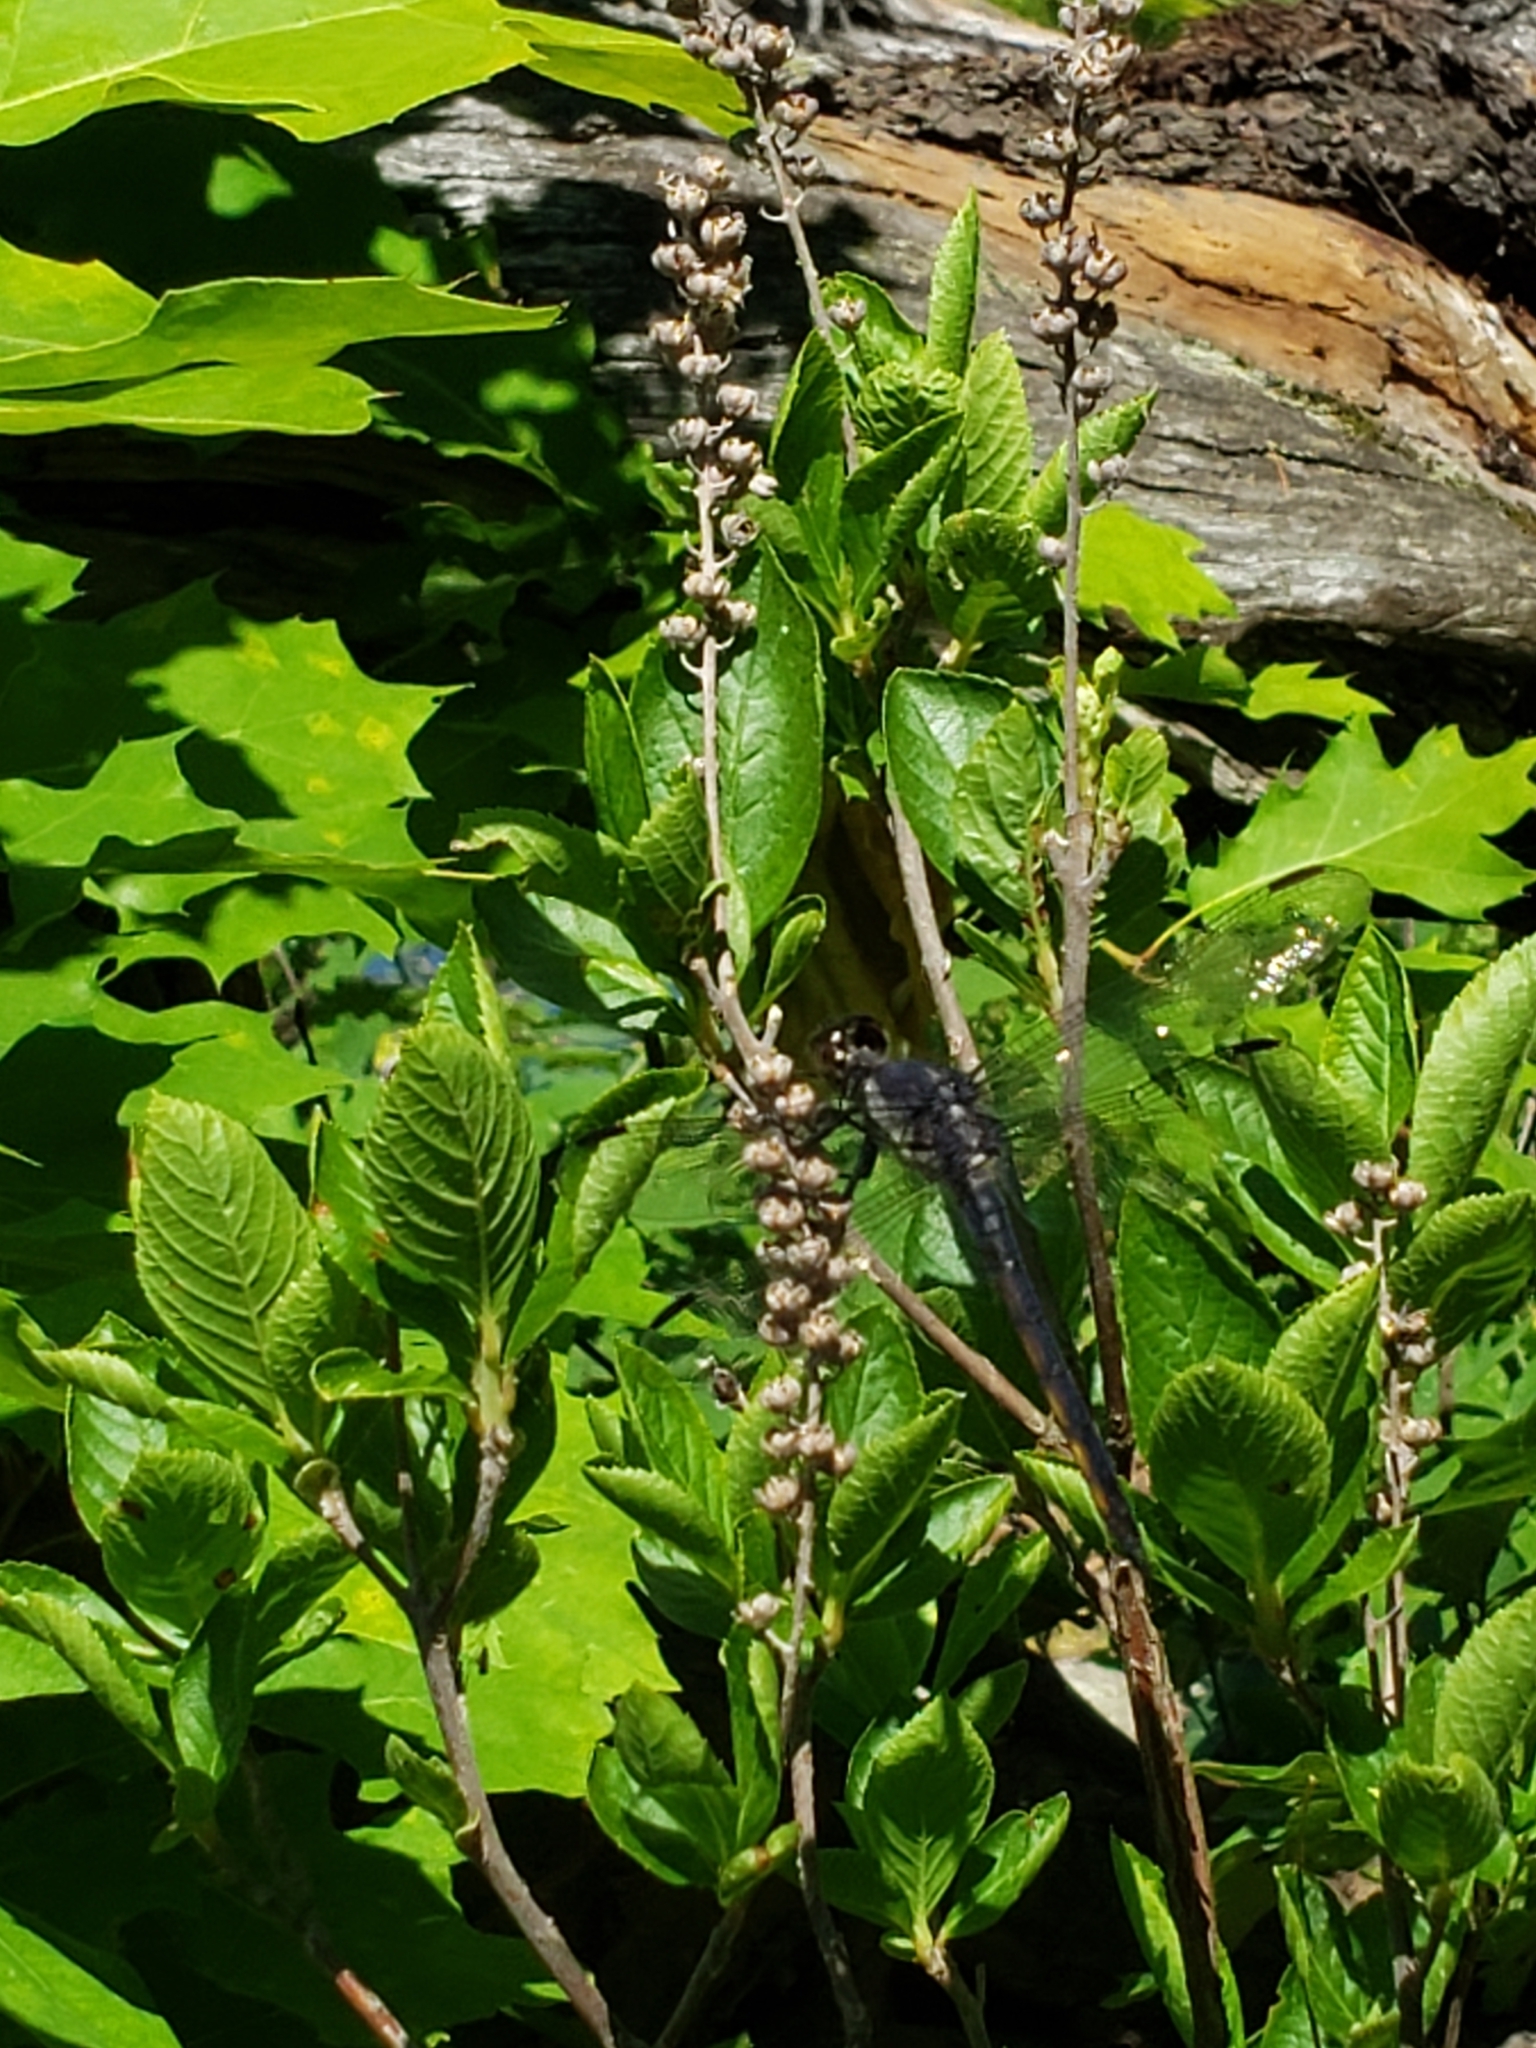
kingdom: Animalia
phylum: Arthropoda
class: Insecta
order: Odonata
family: Libellulidae
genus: Libellula
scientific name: Libellula incesta
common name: Slaty skimmer
